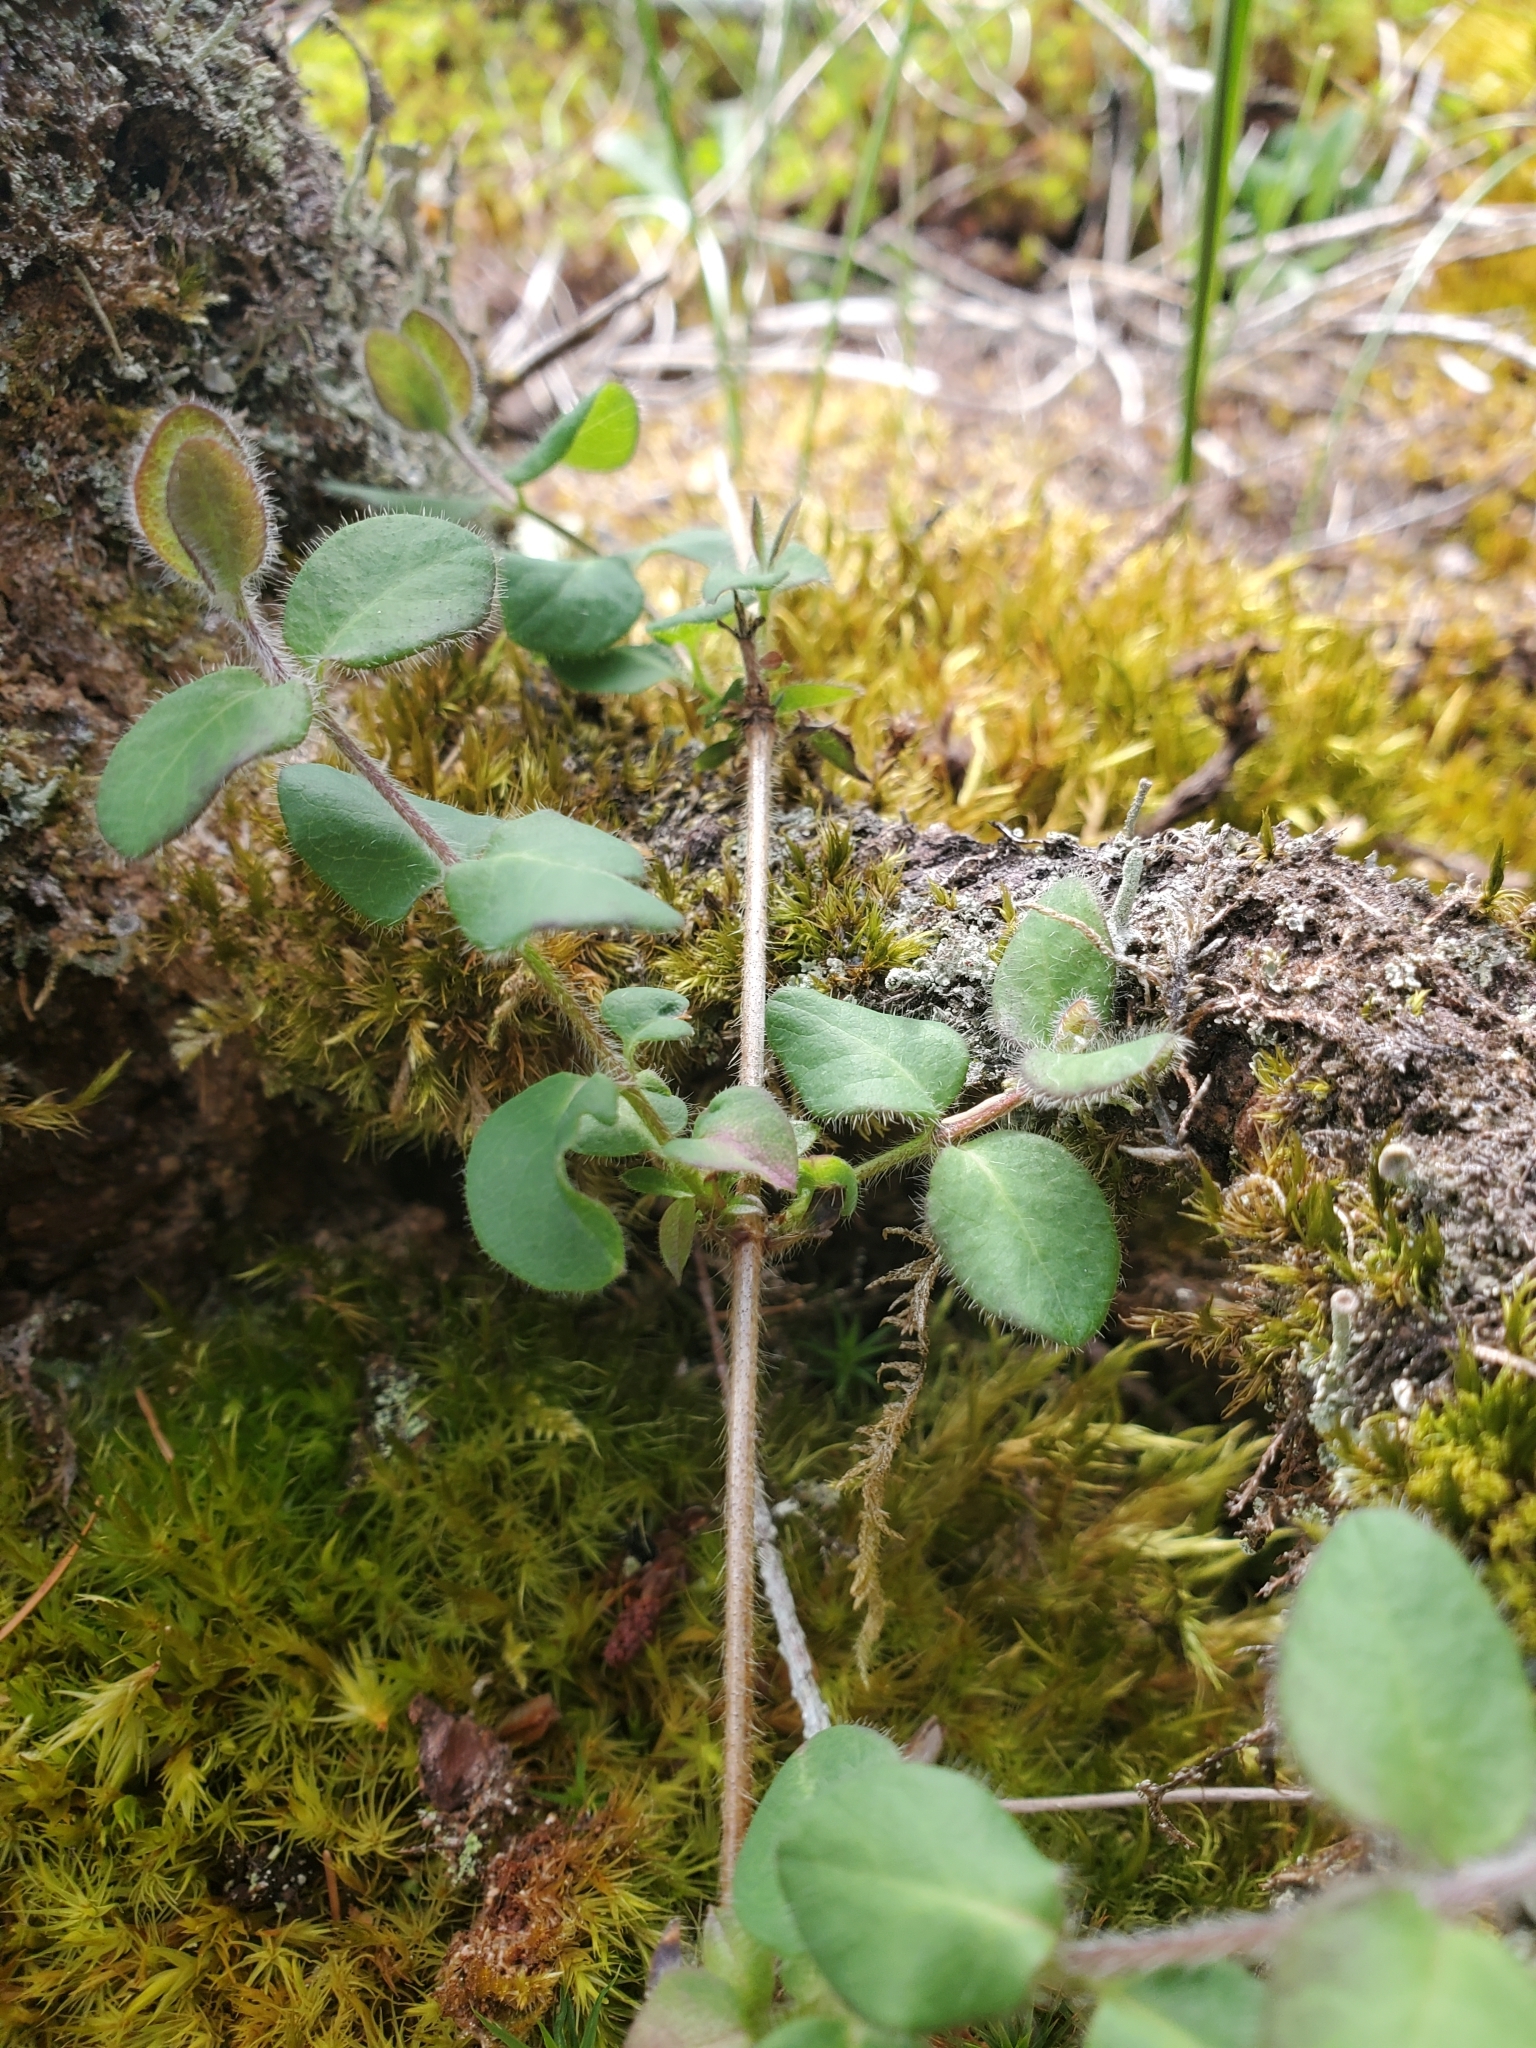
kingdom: Plantae
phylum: Tracheophyta
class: Magnoliopsida
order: Dipsacales
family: Caprifoliaceae
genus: Lonicera
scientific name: Lonicera hispidula
